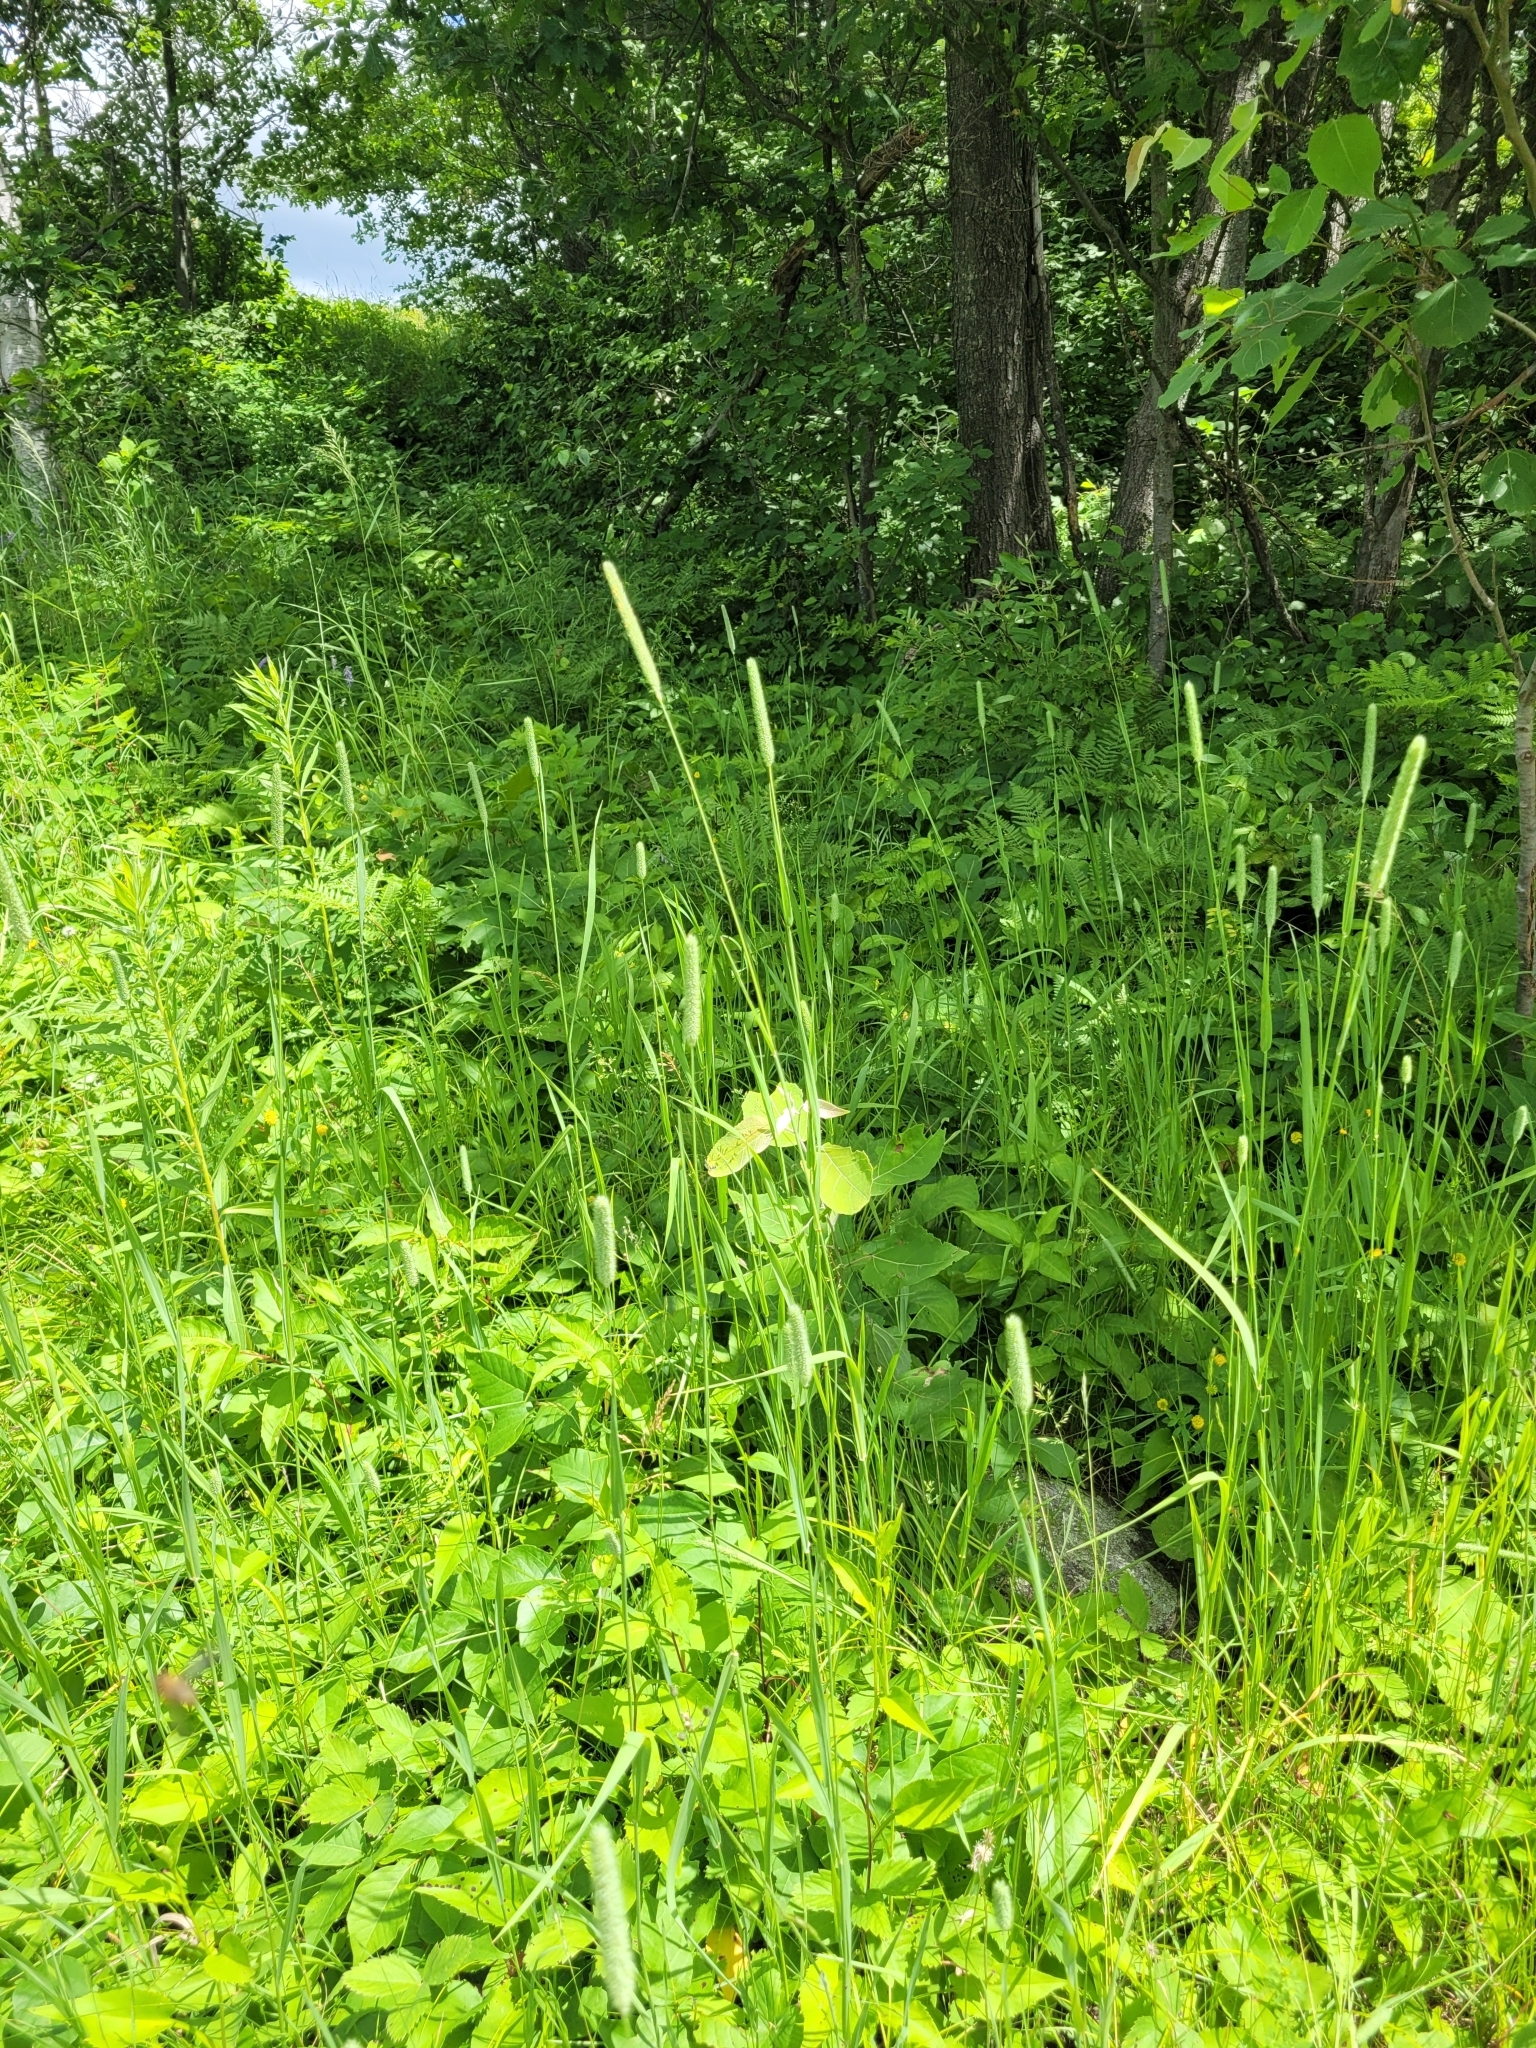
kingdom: Plantae
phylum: Tracheophyta
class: Liliopsida
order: Poales
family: Poaceae
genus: Phleum
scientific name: Phleum pratense
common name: Timothy grass
